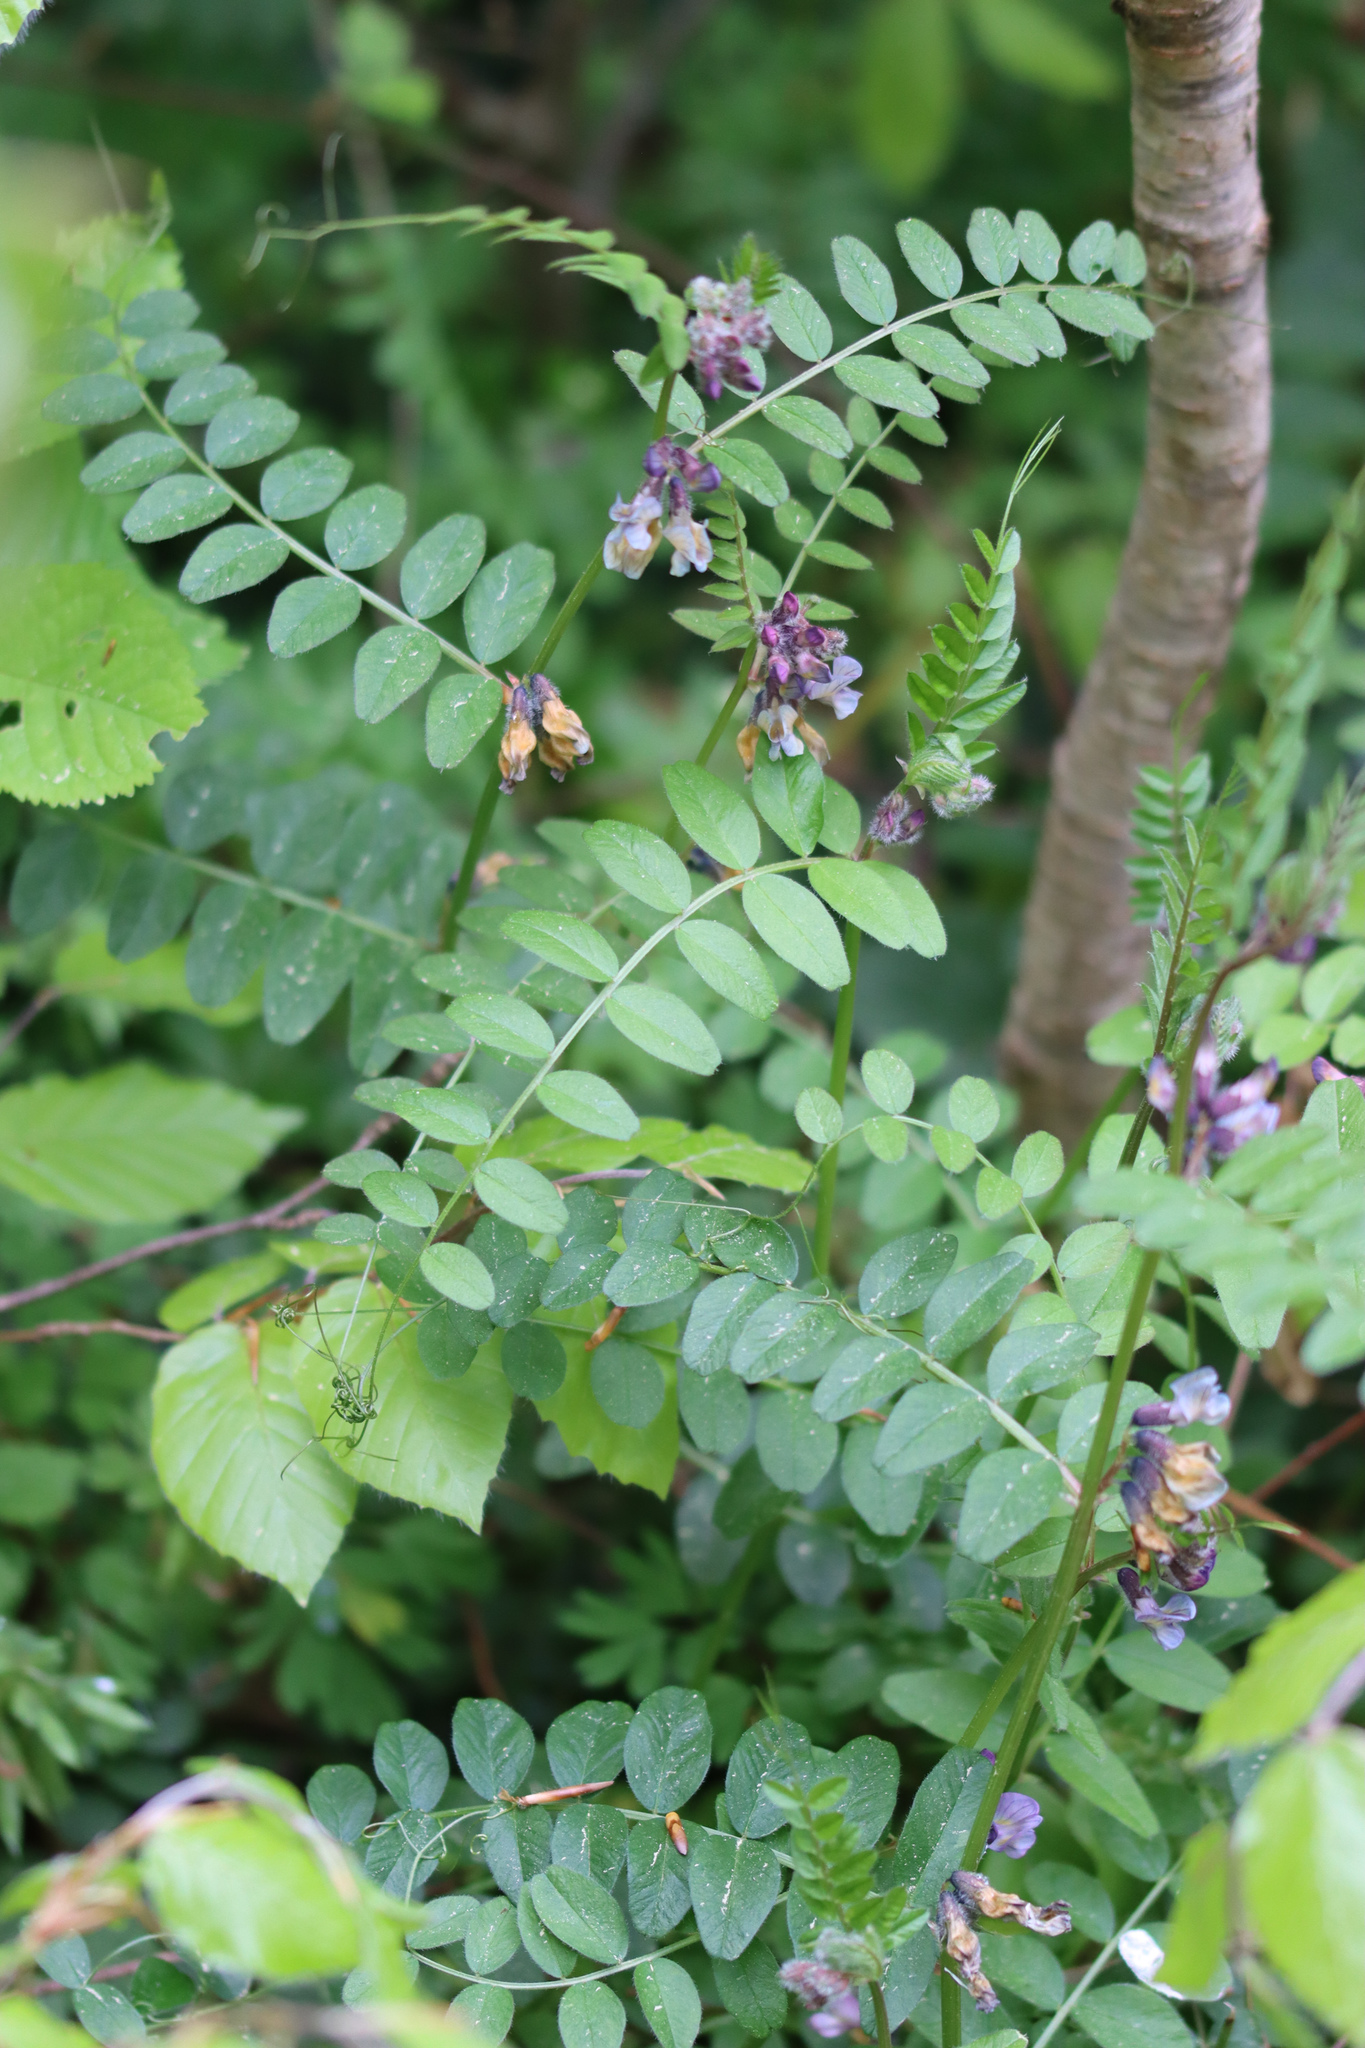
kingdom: Plantae
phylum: Tracheophyta
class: Magnoliopsida
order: Fabales
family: Fabaceae
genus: Vicia
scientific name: Vicia sepium
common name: Bush vetch
